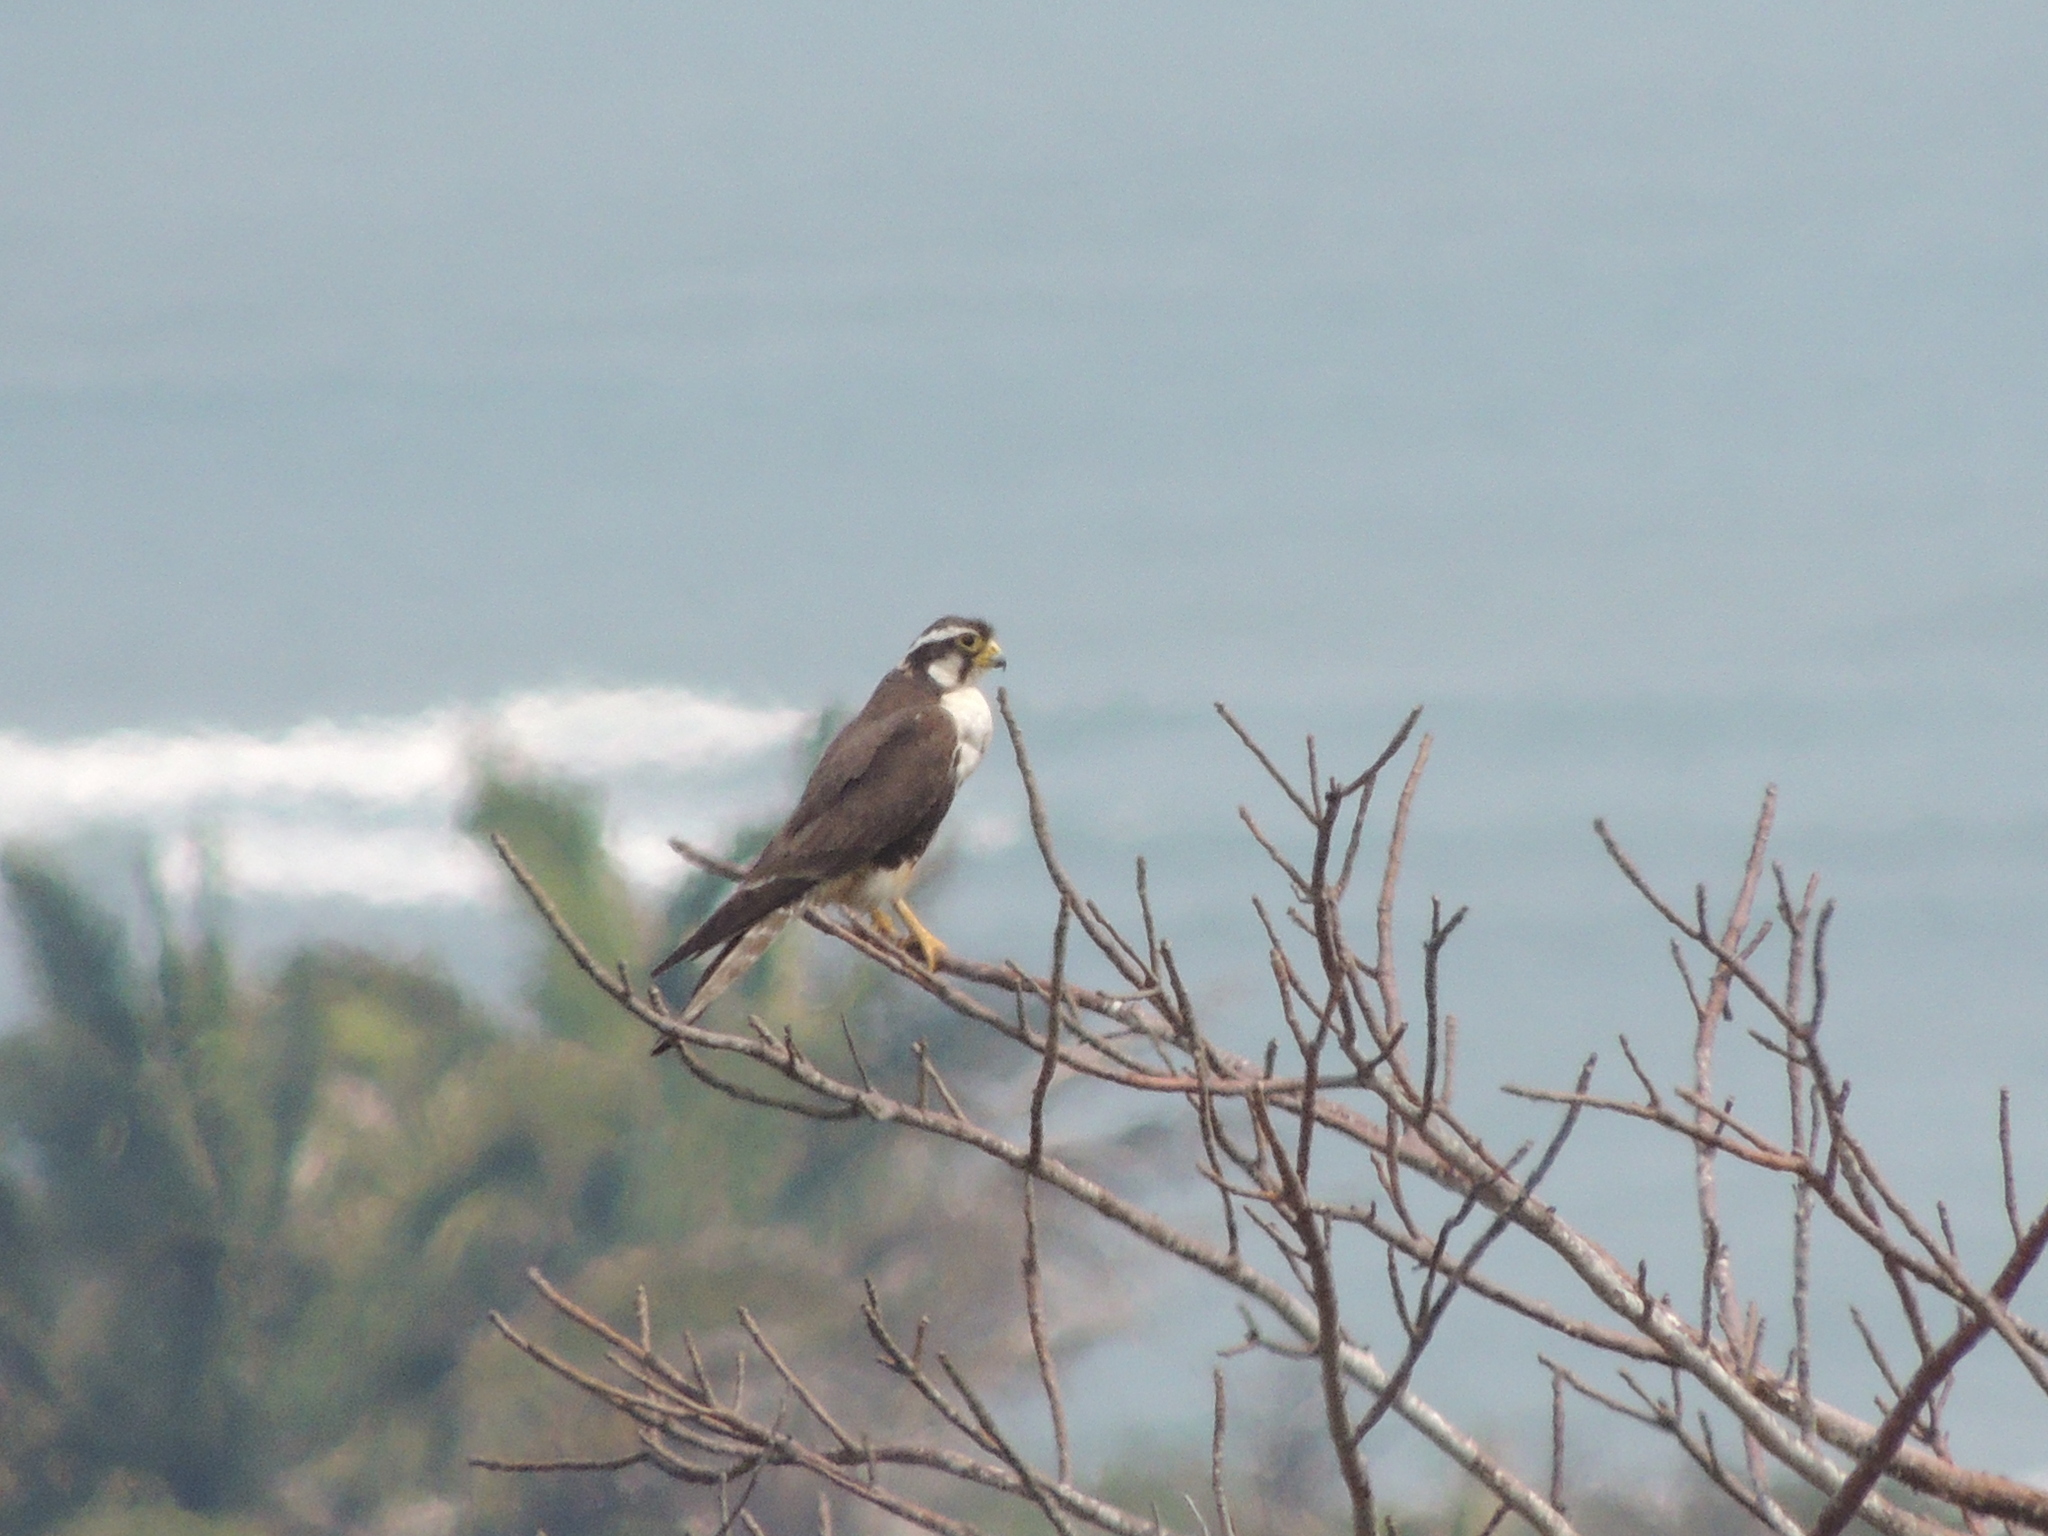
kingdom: Animalia
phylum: Chordata
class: Aves
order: Falconiformes
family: Falconidae
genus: Falco
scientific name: Falco femoralis
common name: Aplomado falcon
